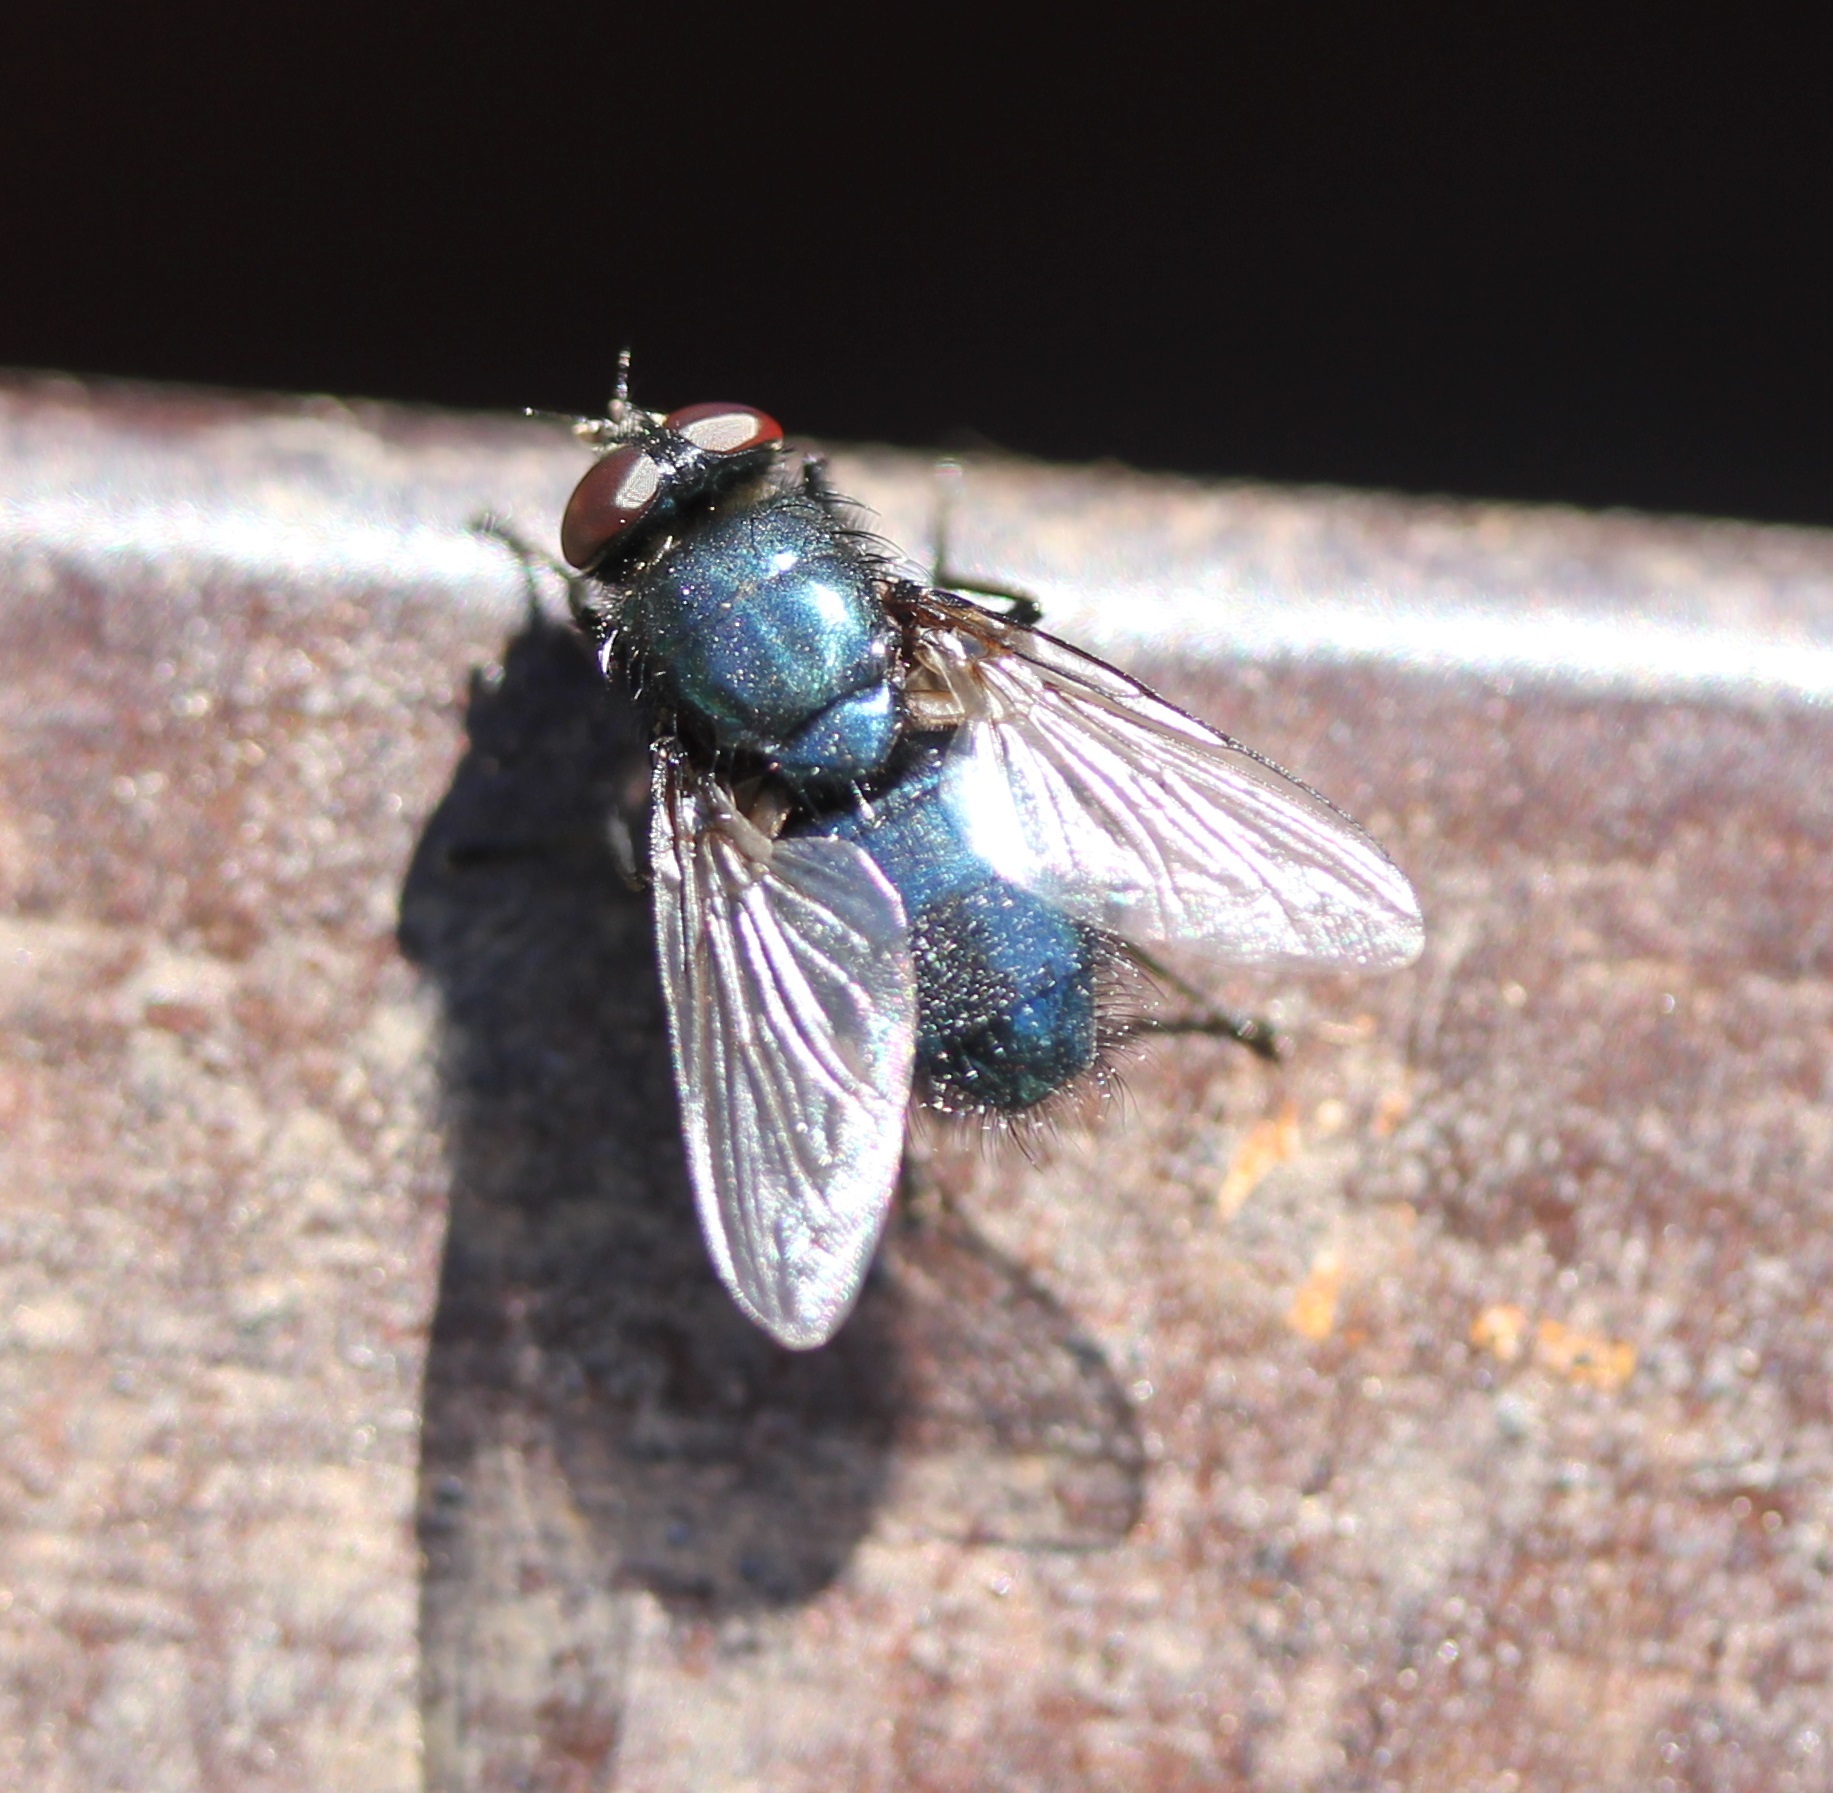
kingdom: Animalia
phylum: Arthropoda
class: Insecta
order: Diptera
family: Calliphoridae
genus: Protophormia
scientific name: Protophormia terraenovae
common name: Blackbottle
